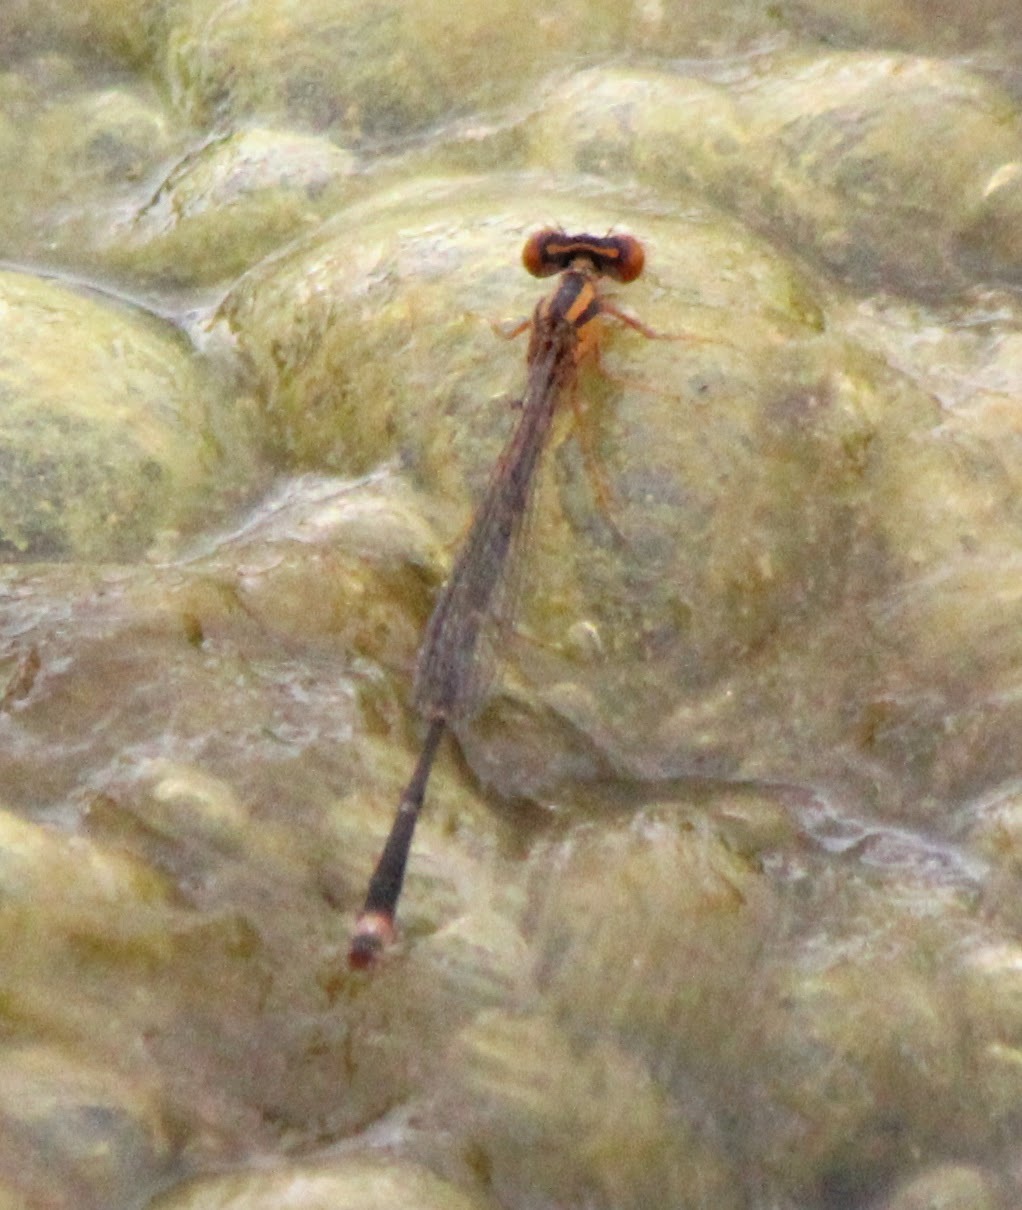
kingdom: Animalia
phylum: Arthropoda
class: Insecta
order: Odonata
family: Coenagrionidae
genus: Enallagma
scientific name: Enallagma signatum
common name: Orange bluet
